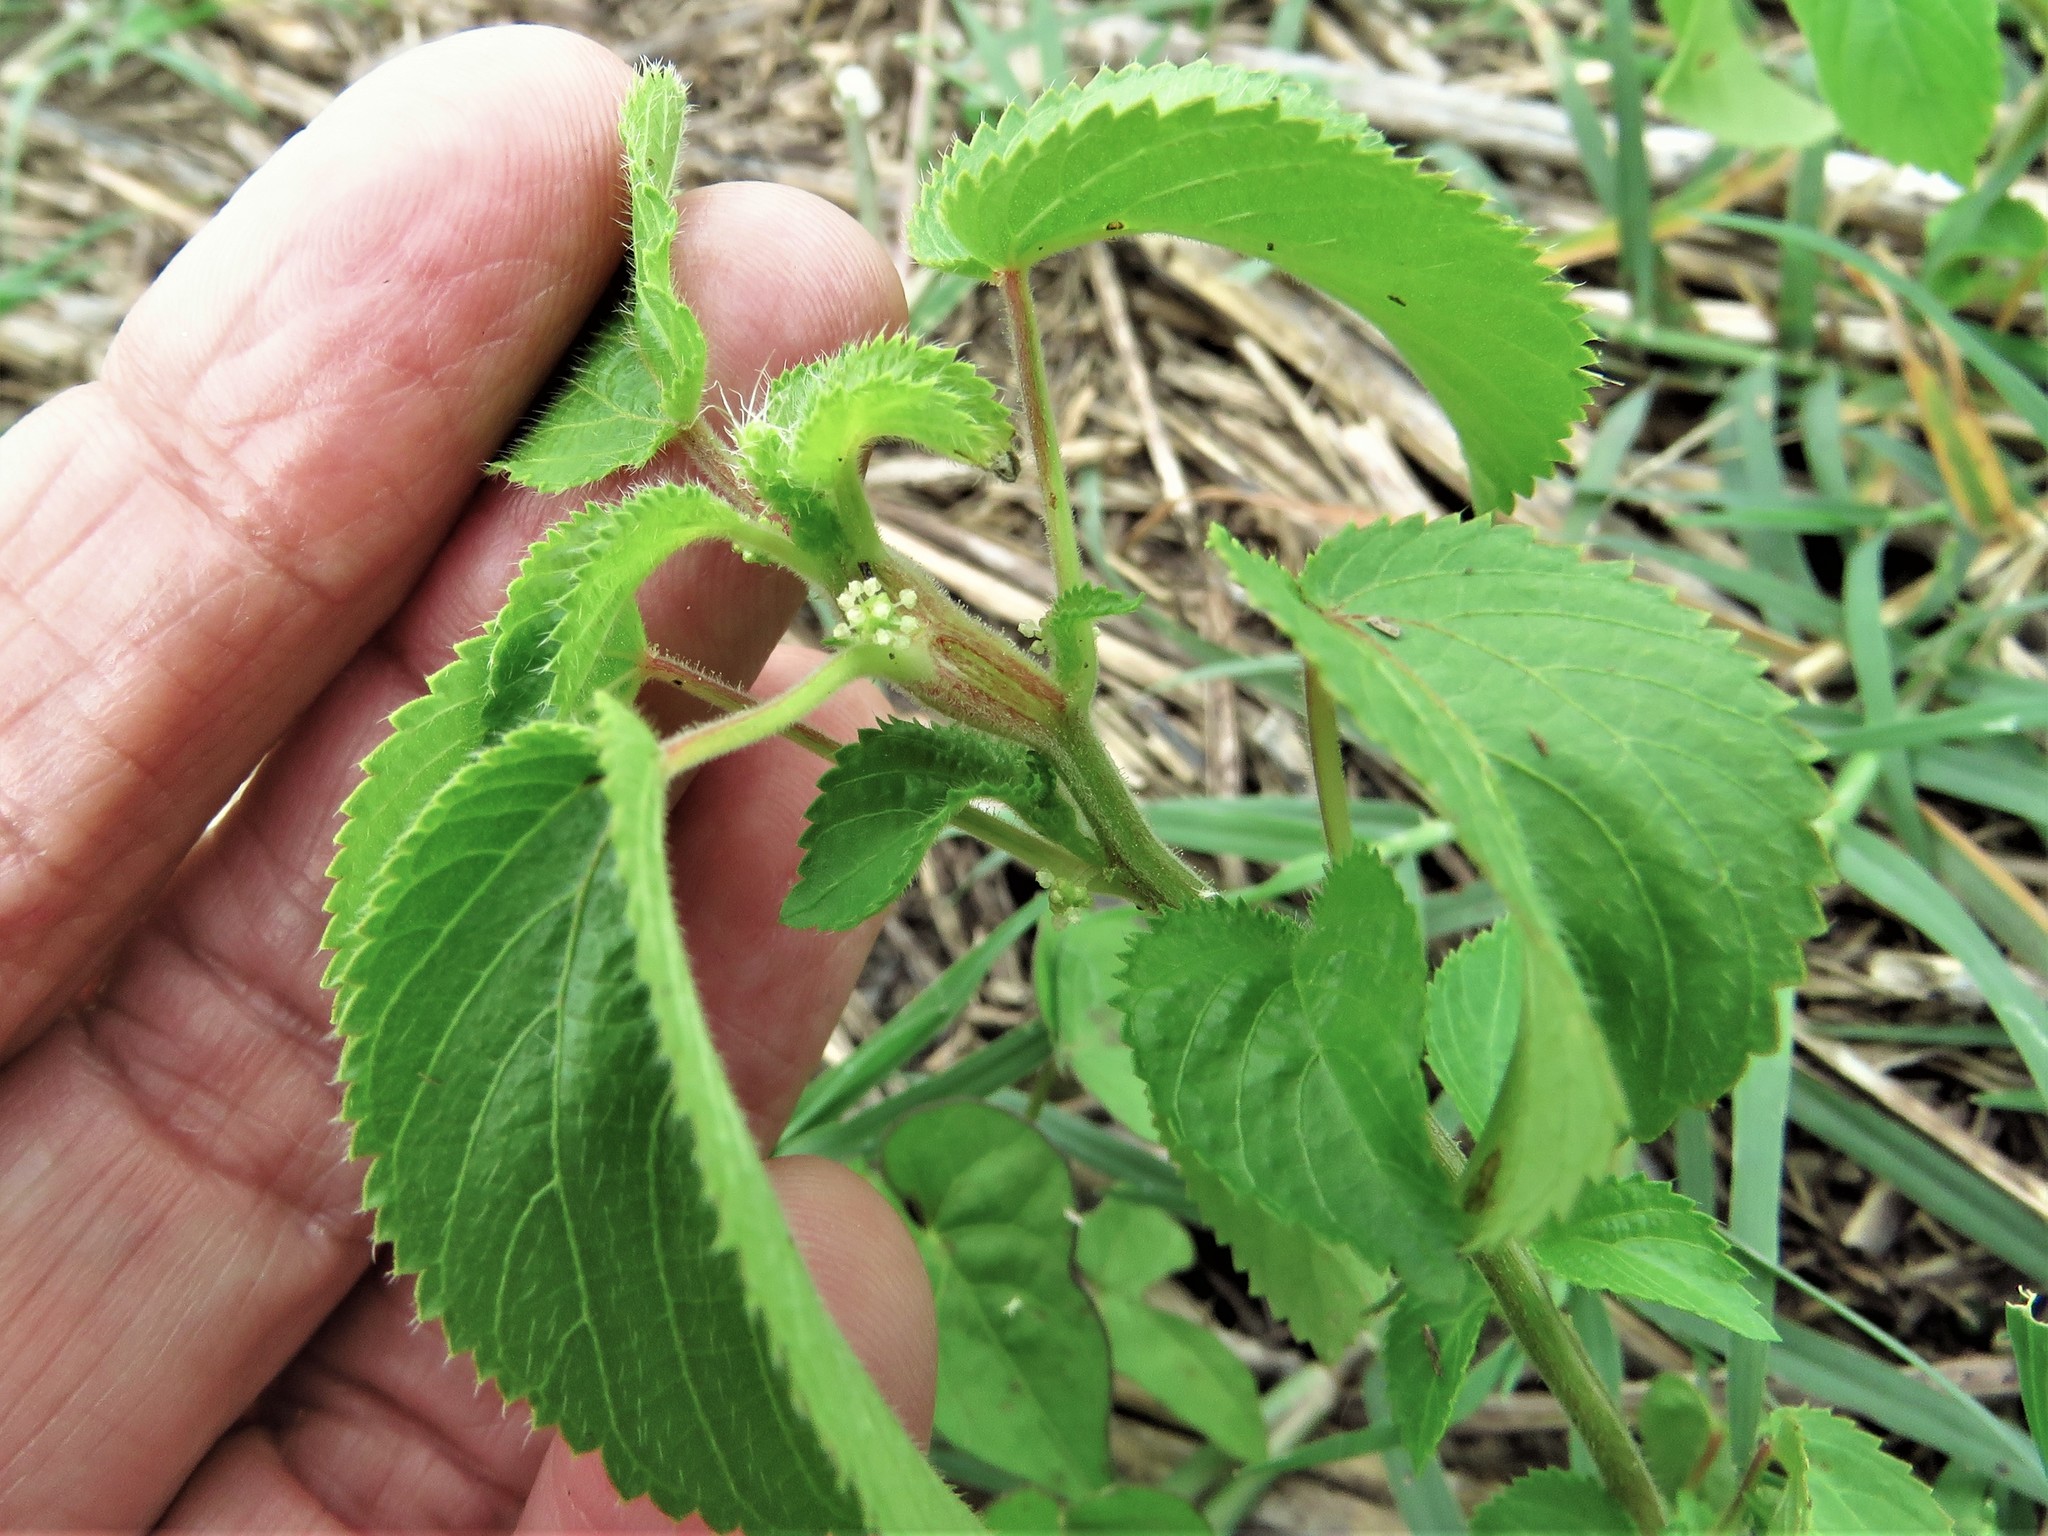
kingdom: Plantae
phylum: Tracheophyta
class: Magnoliopsida
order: Malpighiales
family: Euphorbiaceae
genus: Acalypha
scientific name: Acalypha ostryifolia
